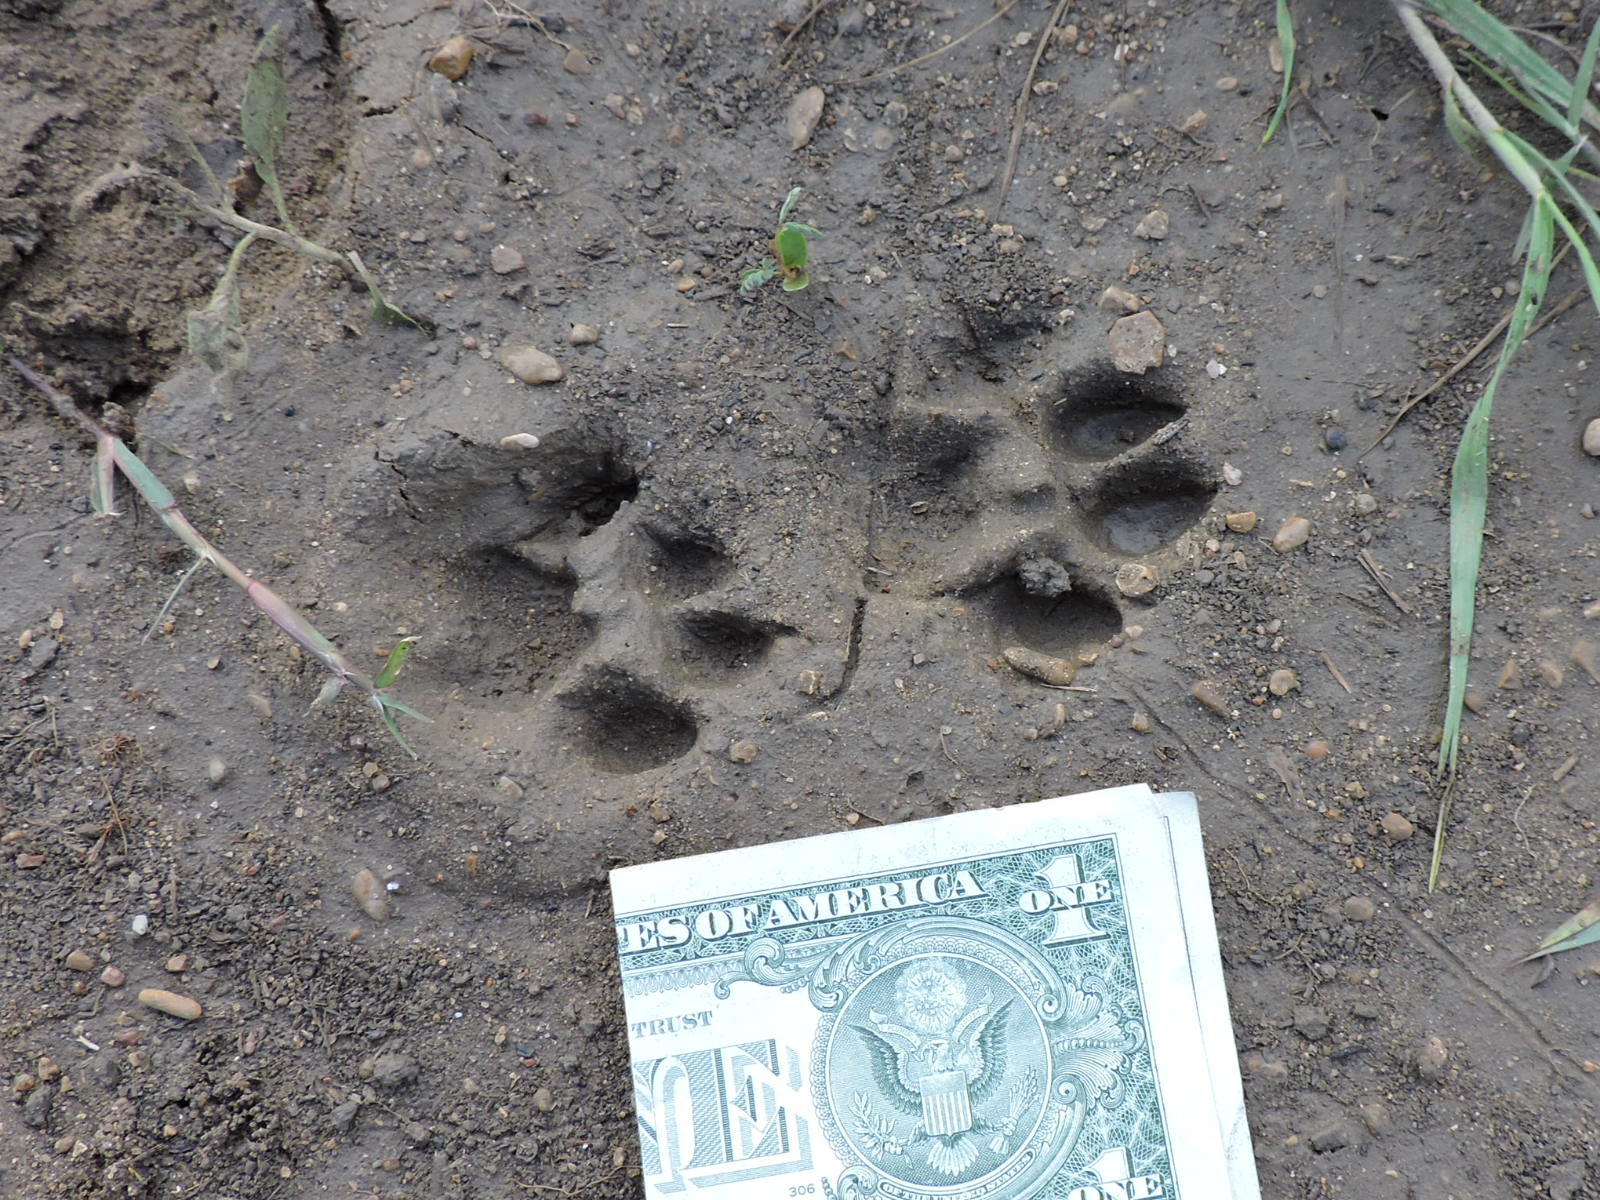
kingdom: Animalia
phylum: Chordata
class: Mammalia
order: Carnivora
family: Felidae
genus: Lynx
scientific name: Lynx rufus
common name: Bobcat
